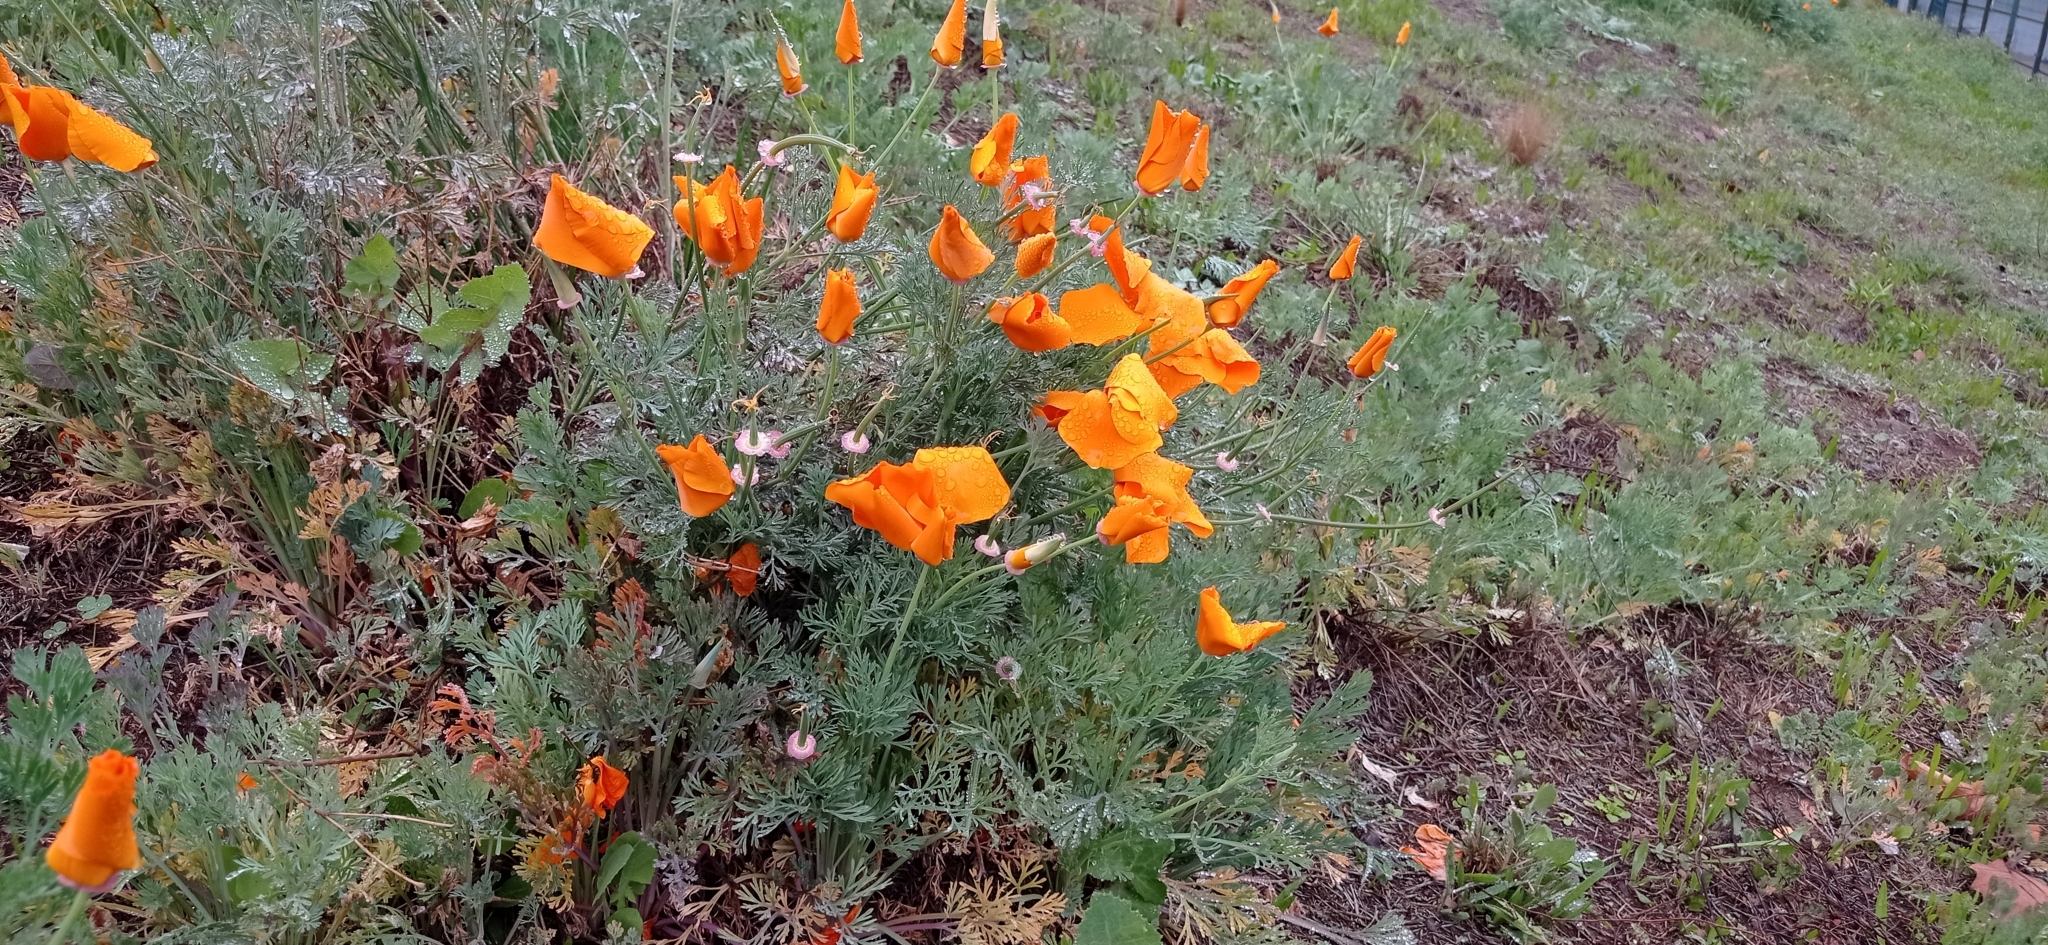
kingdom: Plantae
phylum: Tracheophyta
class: Magnoliopsida
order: Ranunculales
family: Papaveraceae
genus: Eschscholzia
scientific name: Eschscholzia californica
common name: California poppy
